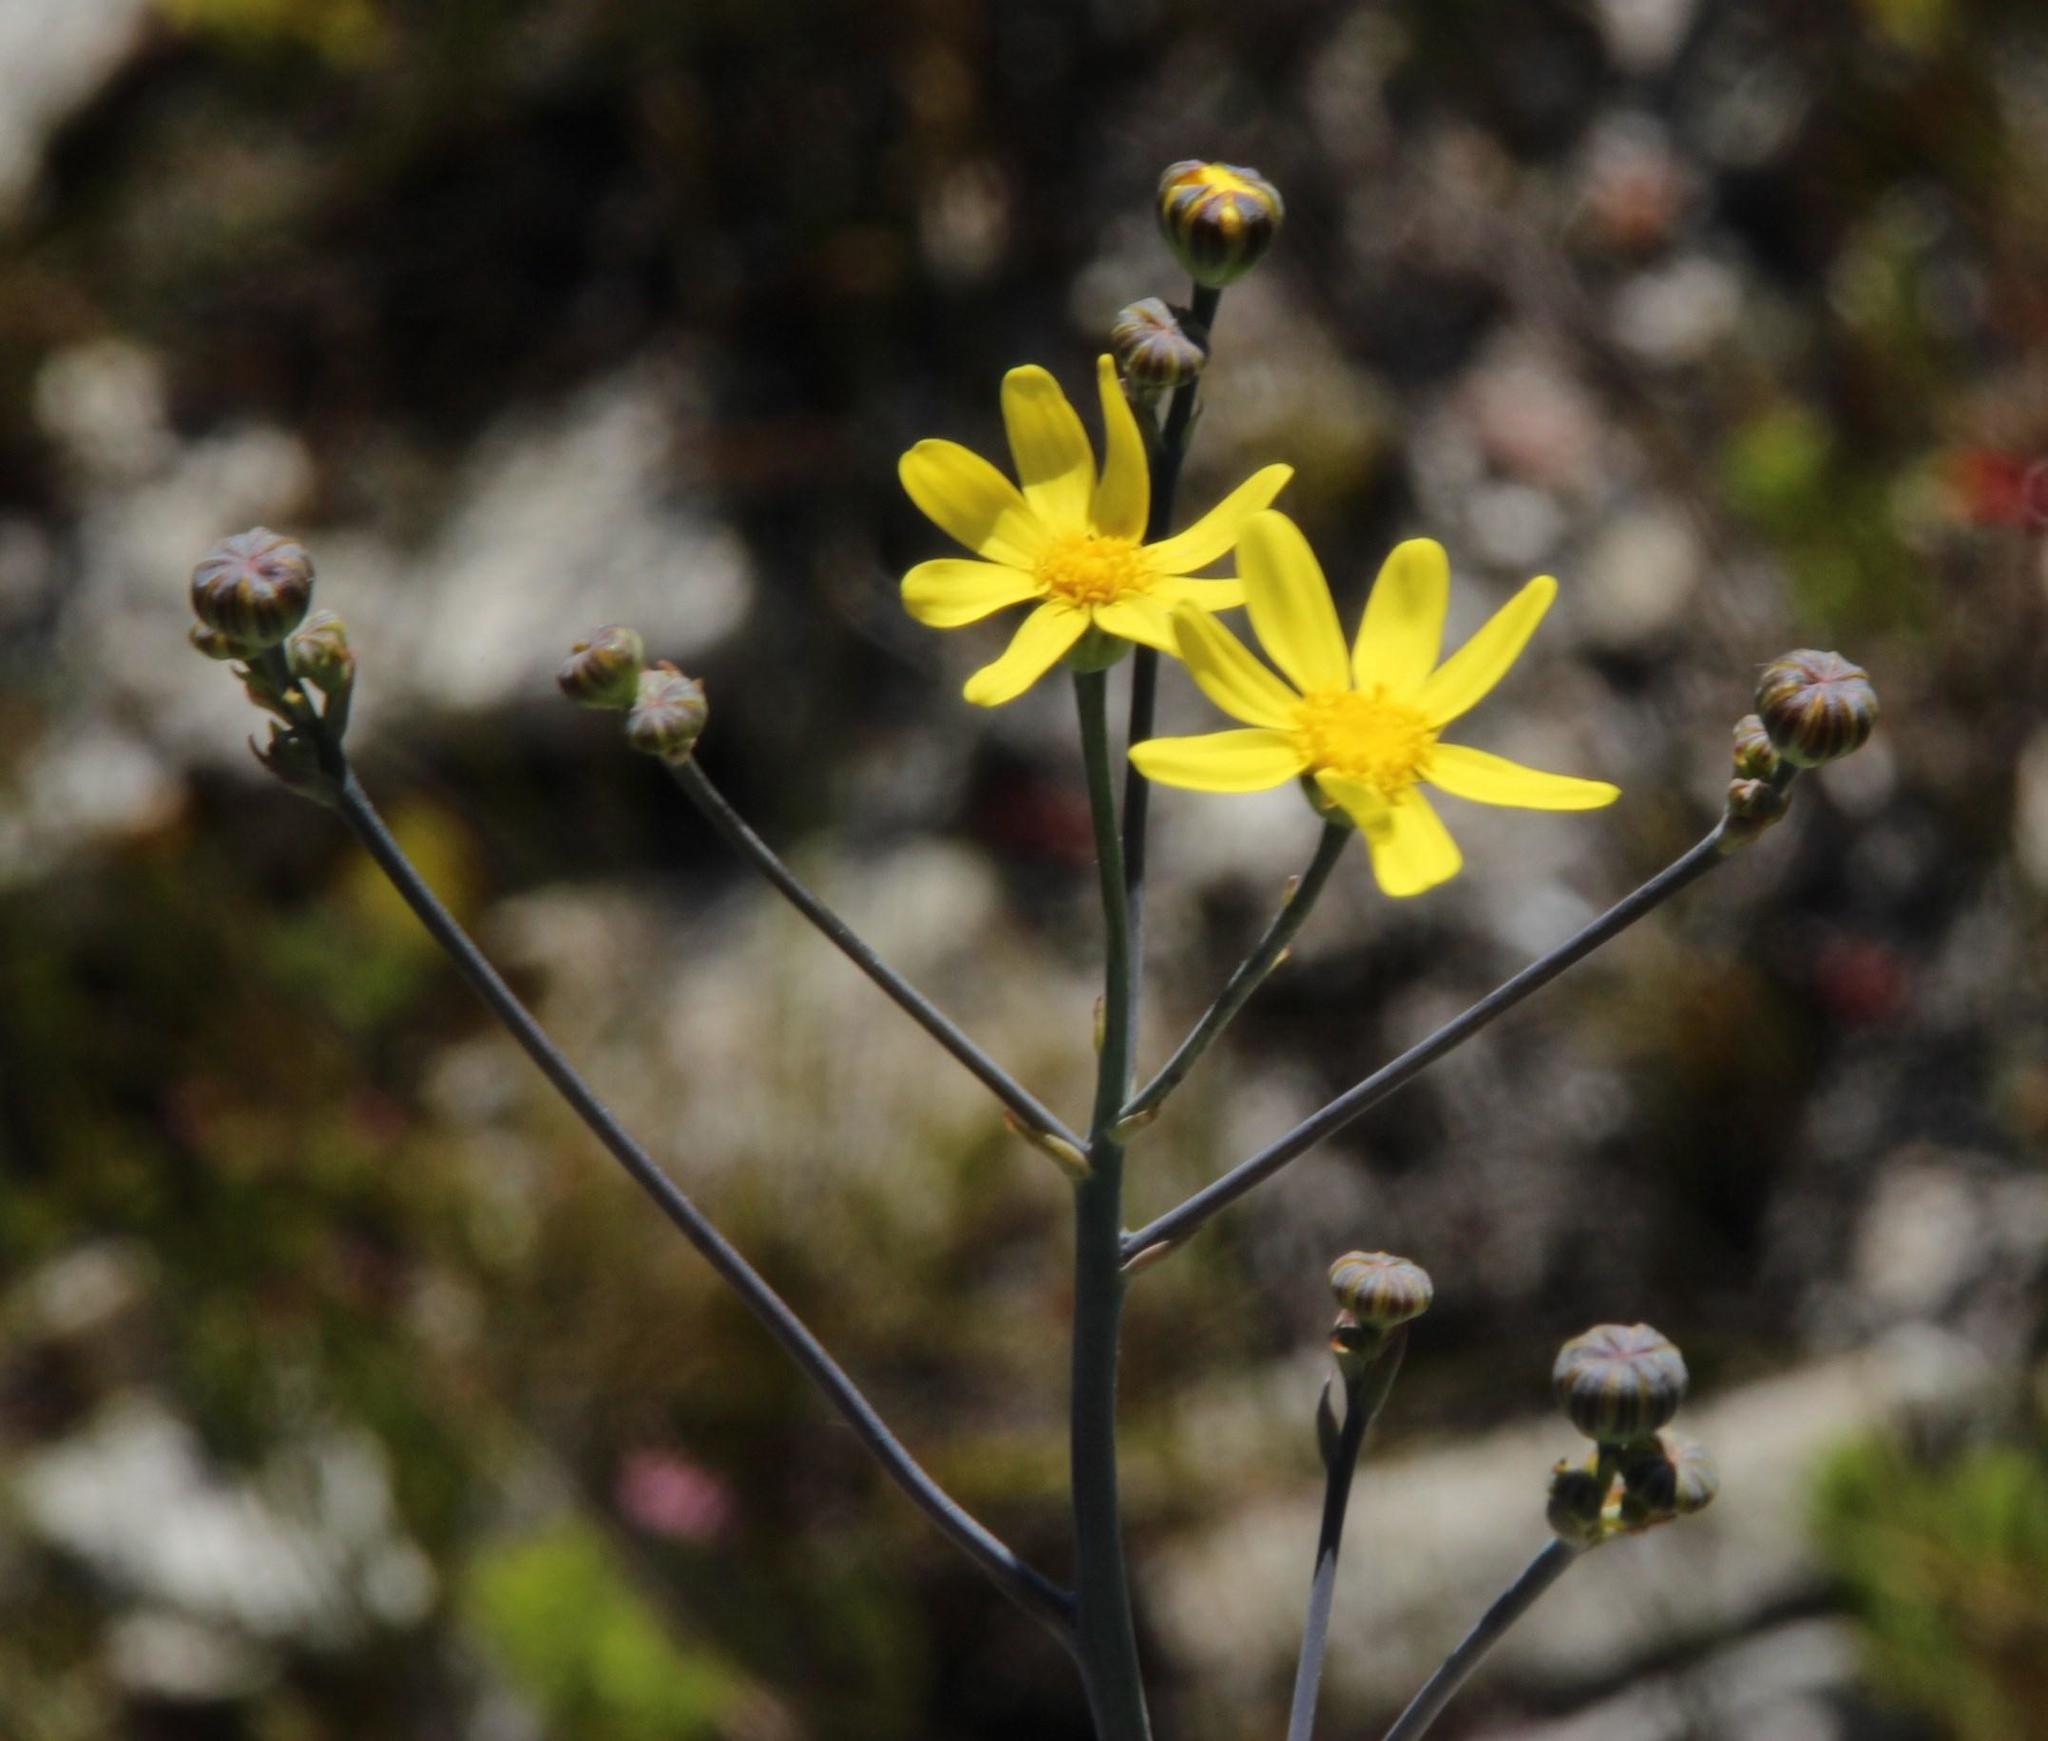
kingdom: Plantae
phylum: Tracheophyta
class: Magnoliopsida
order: Asterales
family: Asteraceae
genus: Othonna
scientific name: Othonna quinquedentata
